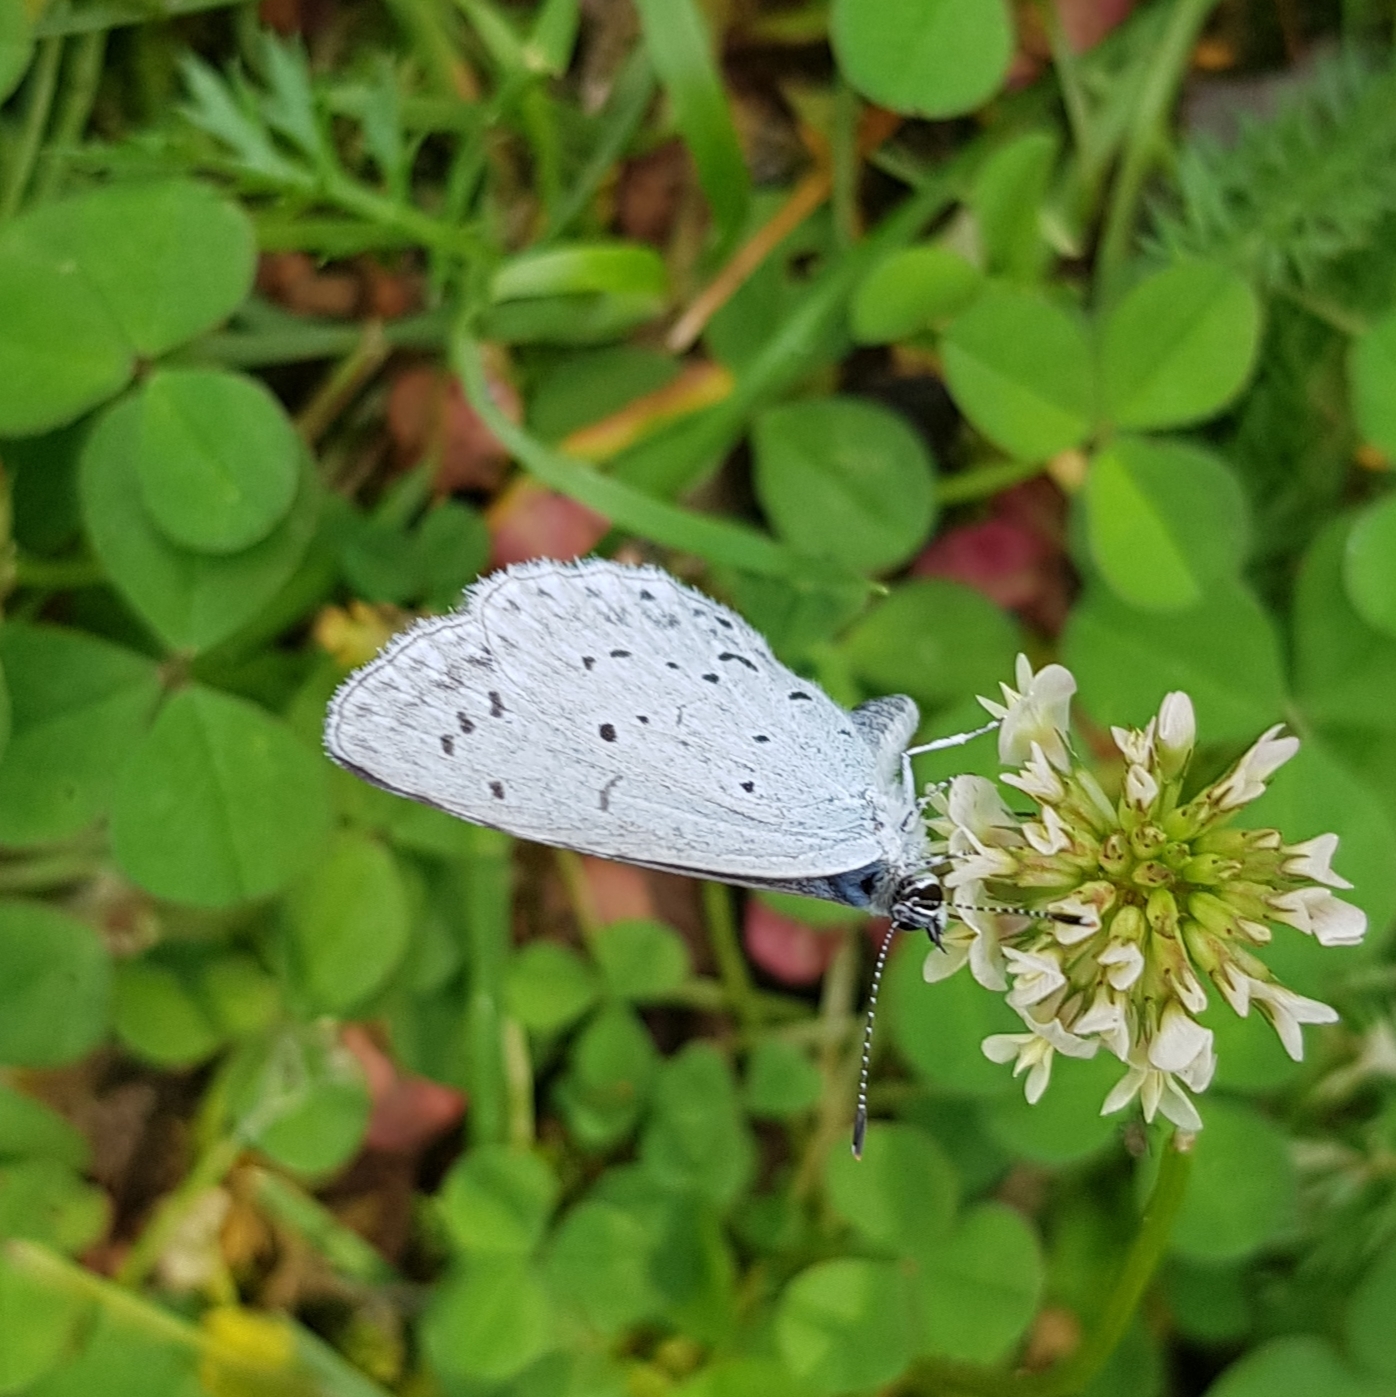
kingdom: Animalia
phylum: Arthropoda
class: Insecta
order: Lepidoptera
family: Lycaenidae
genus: Celastrina
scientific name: Celastrina argiolus
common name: Holly blue
